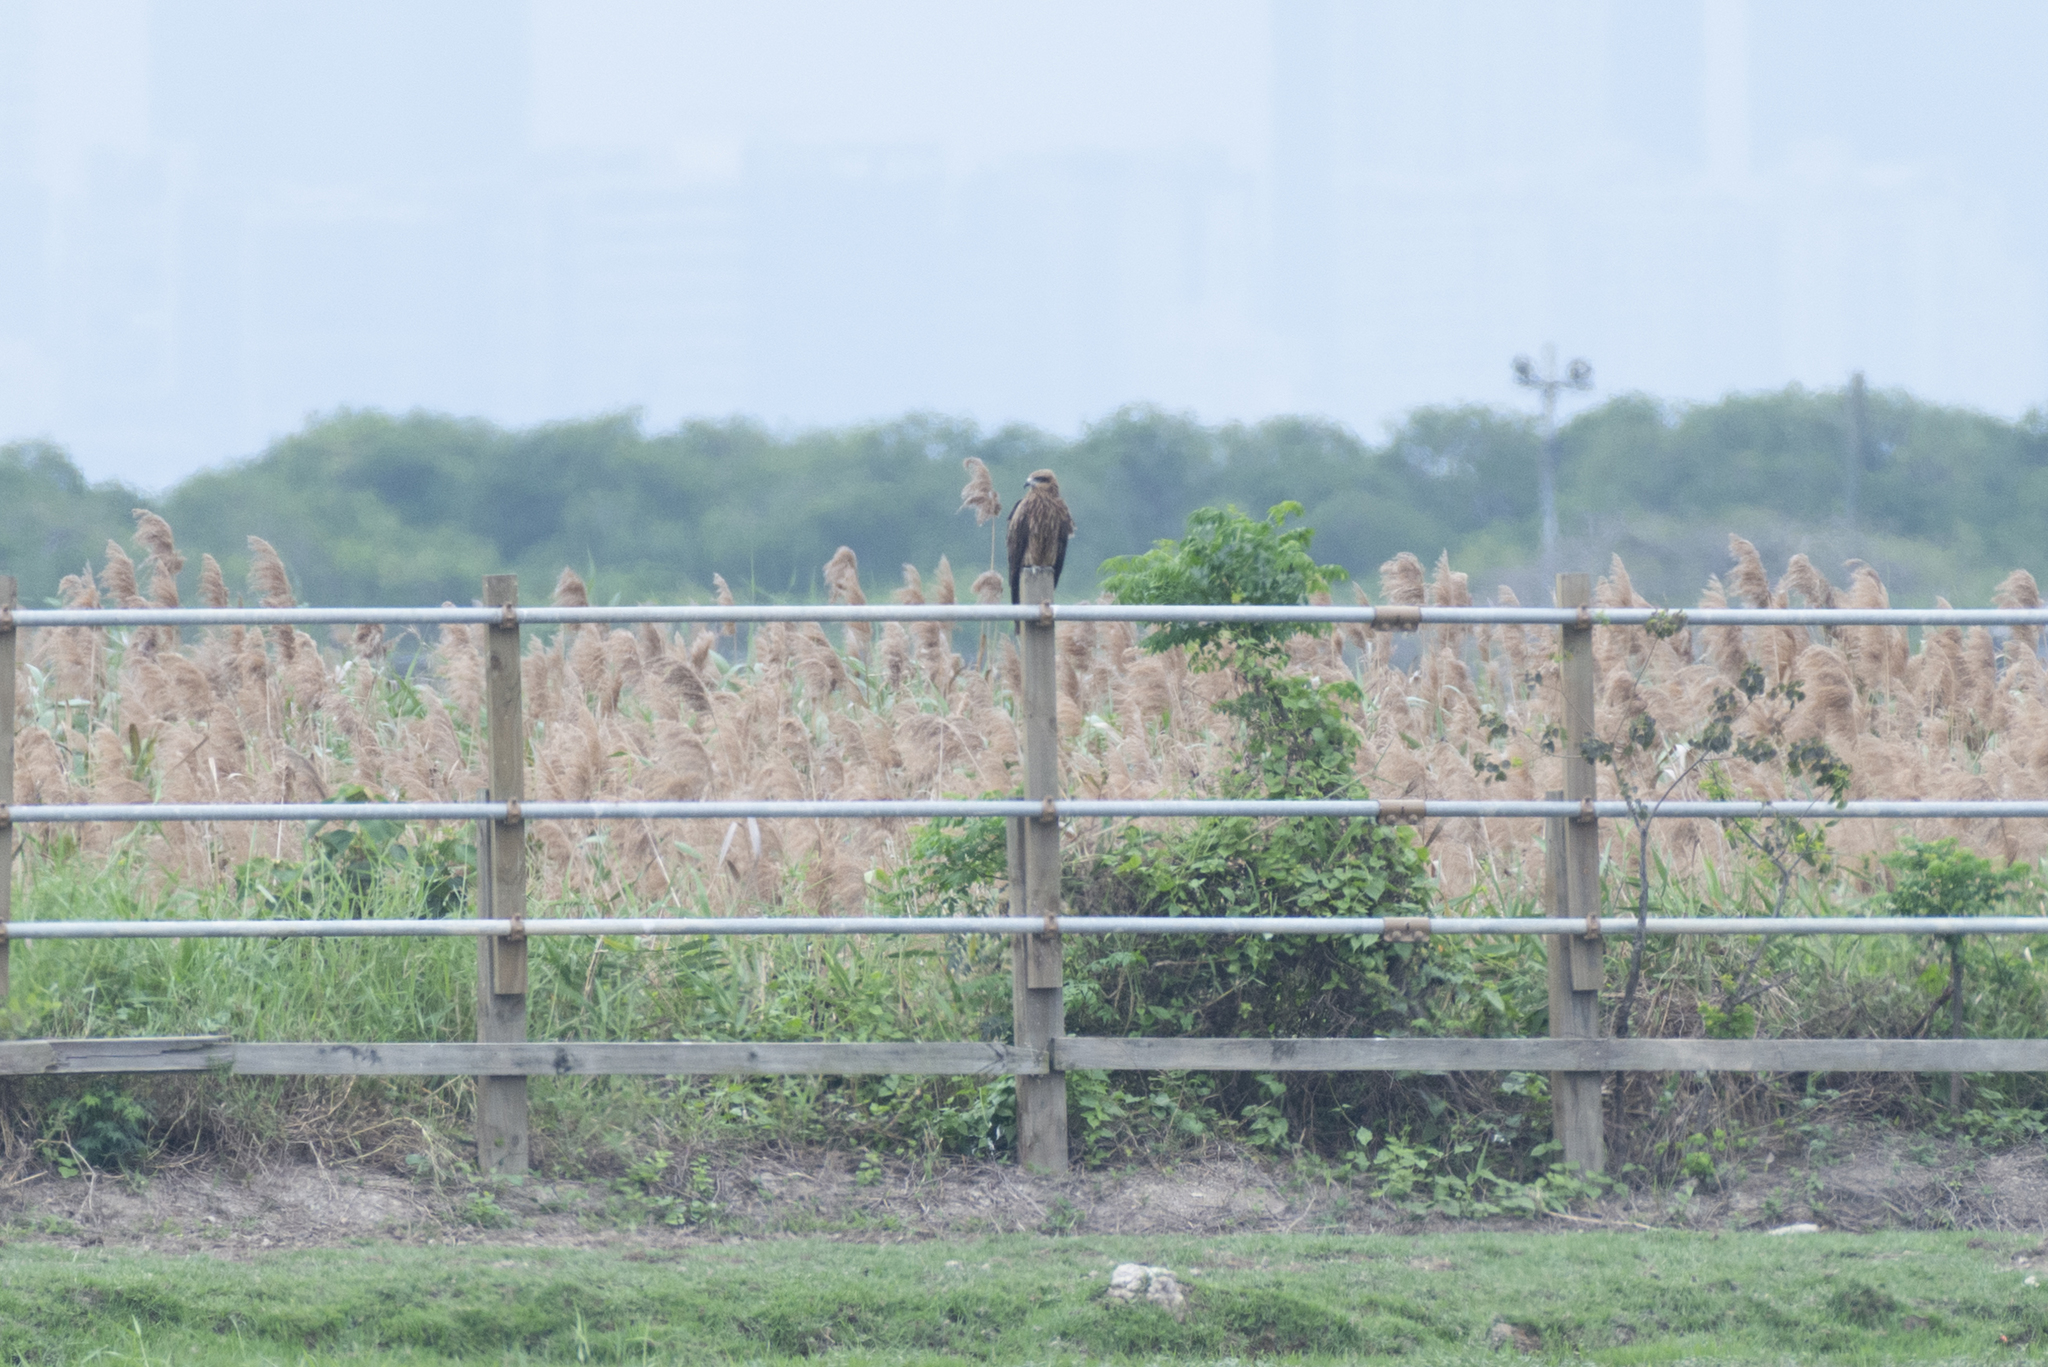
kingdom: Animalia
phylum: Chordata
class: Aves
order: Accipitriformes
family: Accipitridae
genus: Milvus
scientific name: Milvus migrans
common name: Black kite
